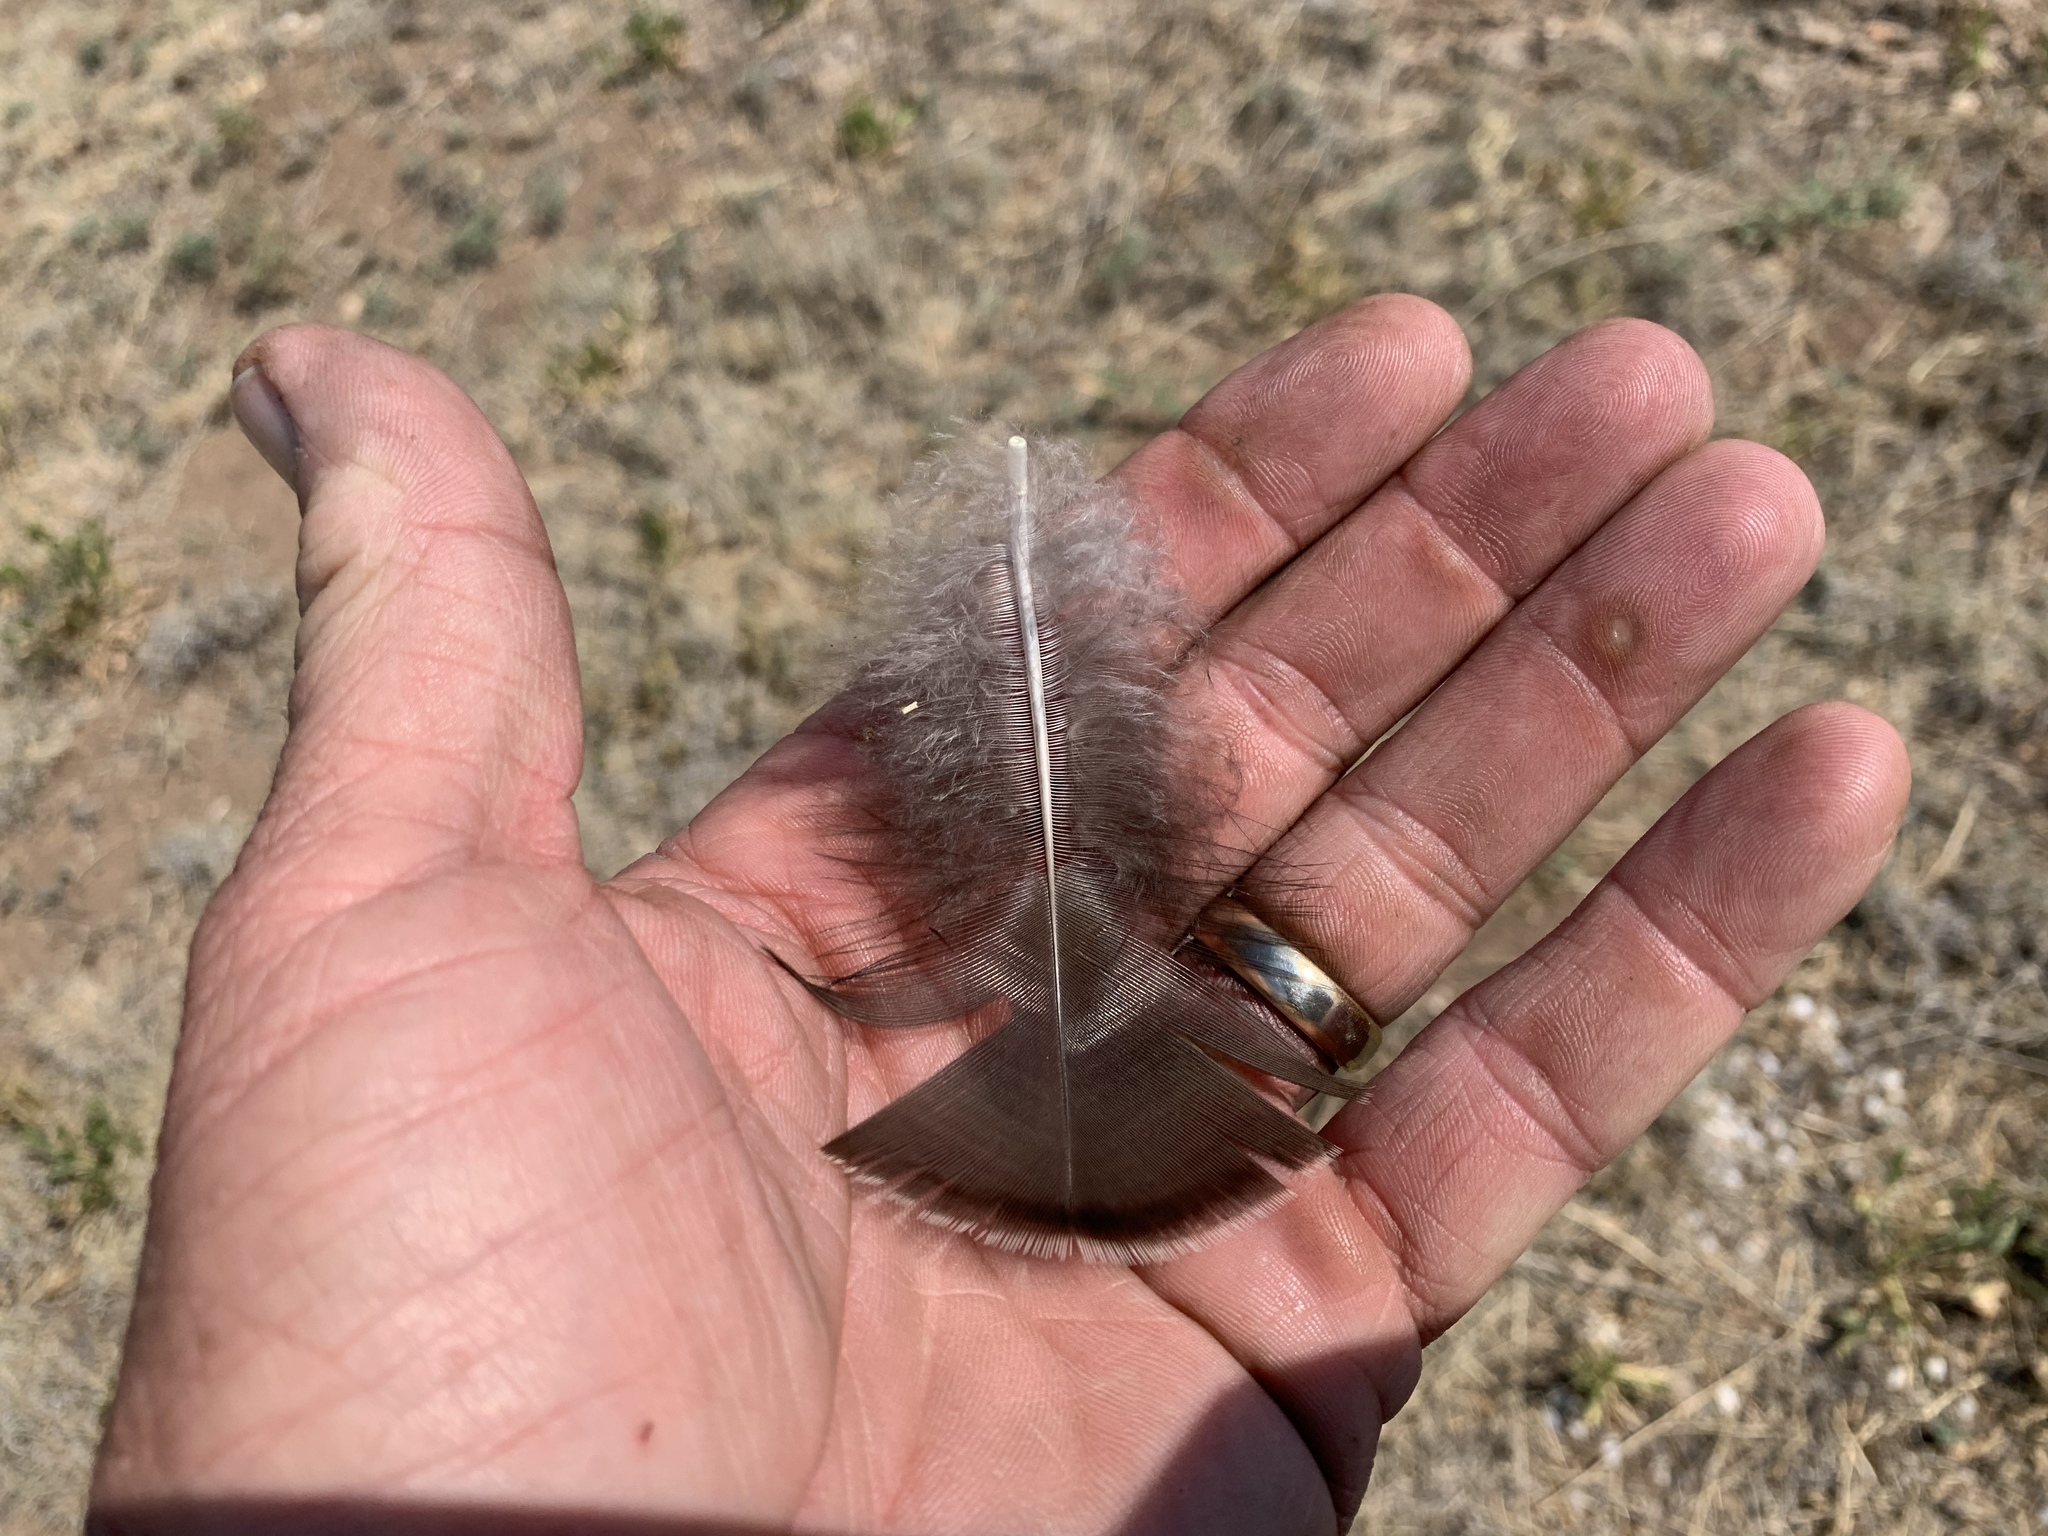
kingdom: Animalia
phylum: Chordata
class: Aves
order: Galliformes
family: Phasianidae
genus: Meleagris
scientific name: Meleagris gallopavo
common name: Wild turkey
